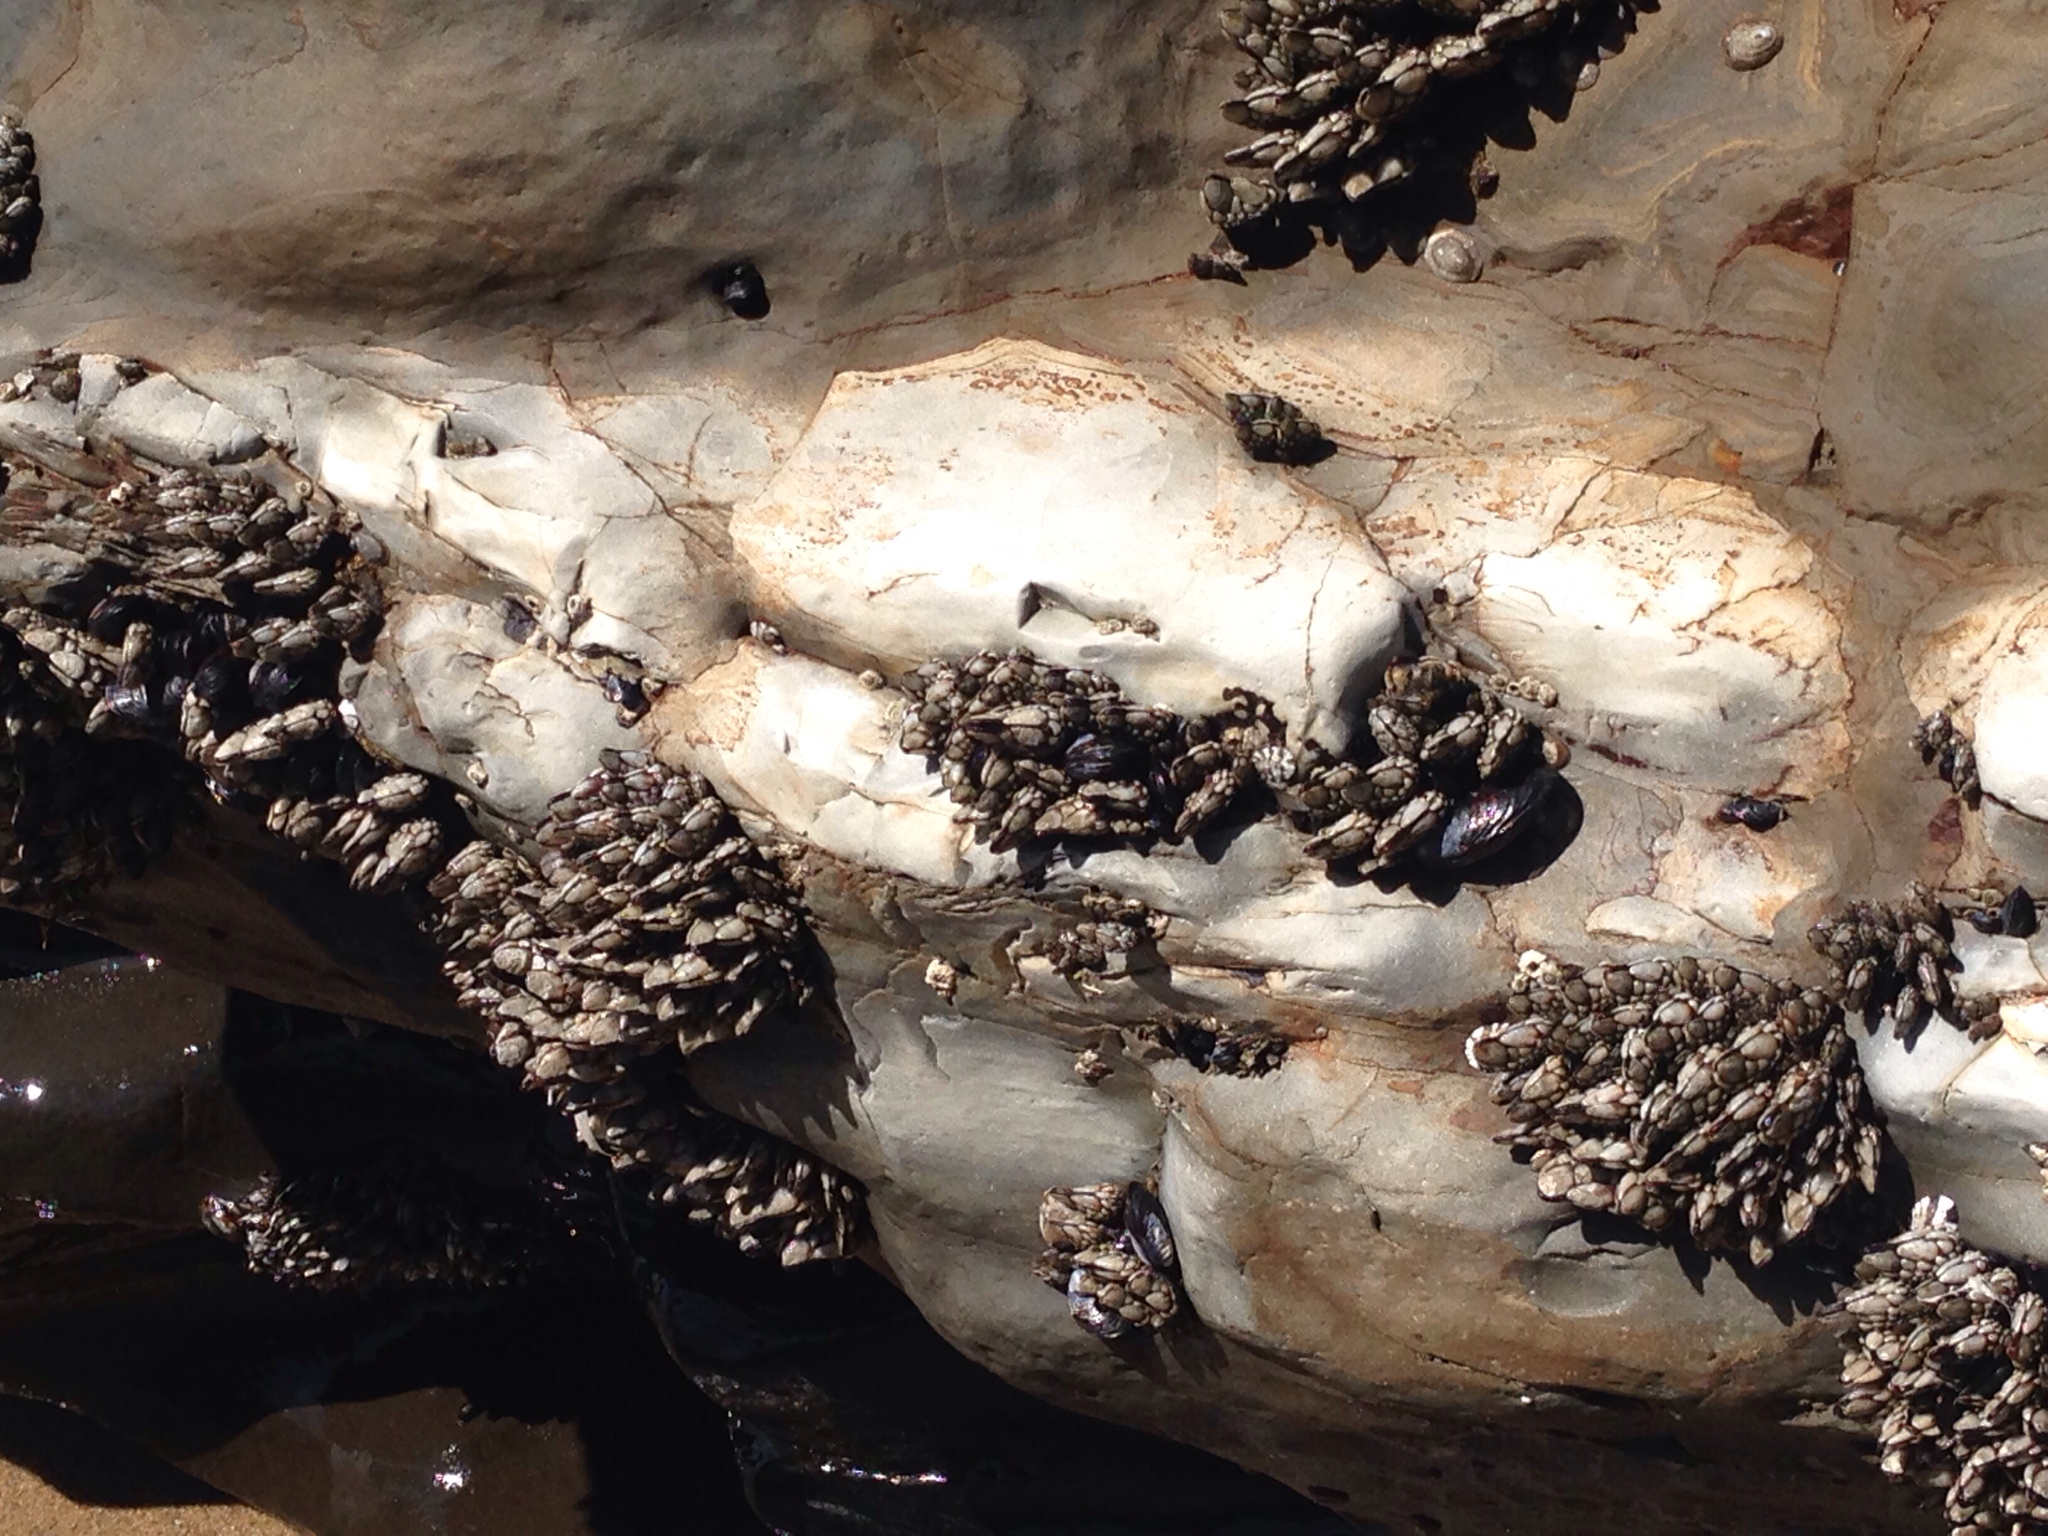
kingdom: Animalia
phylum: Arthropoda
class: Maxillopoda
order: Pedunculata
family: Pollicipedidae
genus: Pollicipes
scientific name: Pollicipes polymerus
